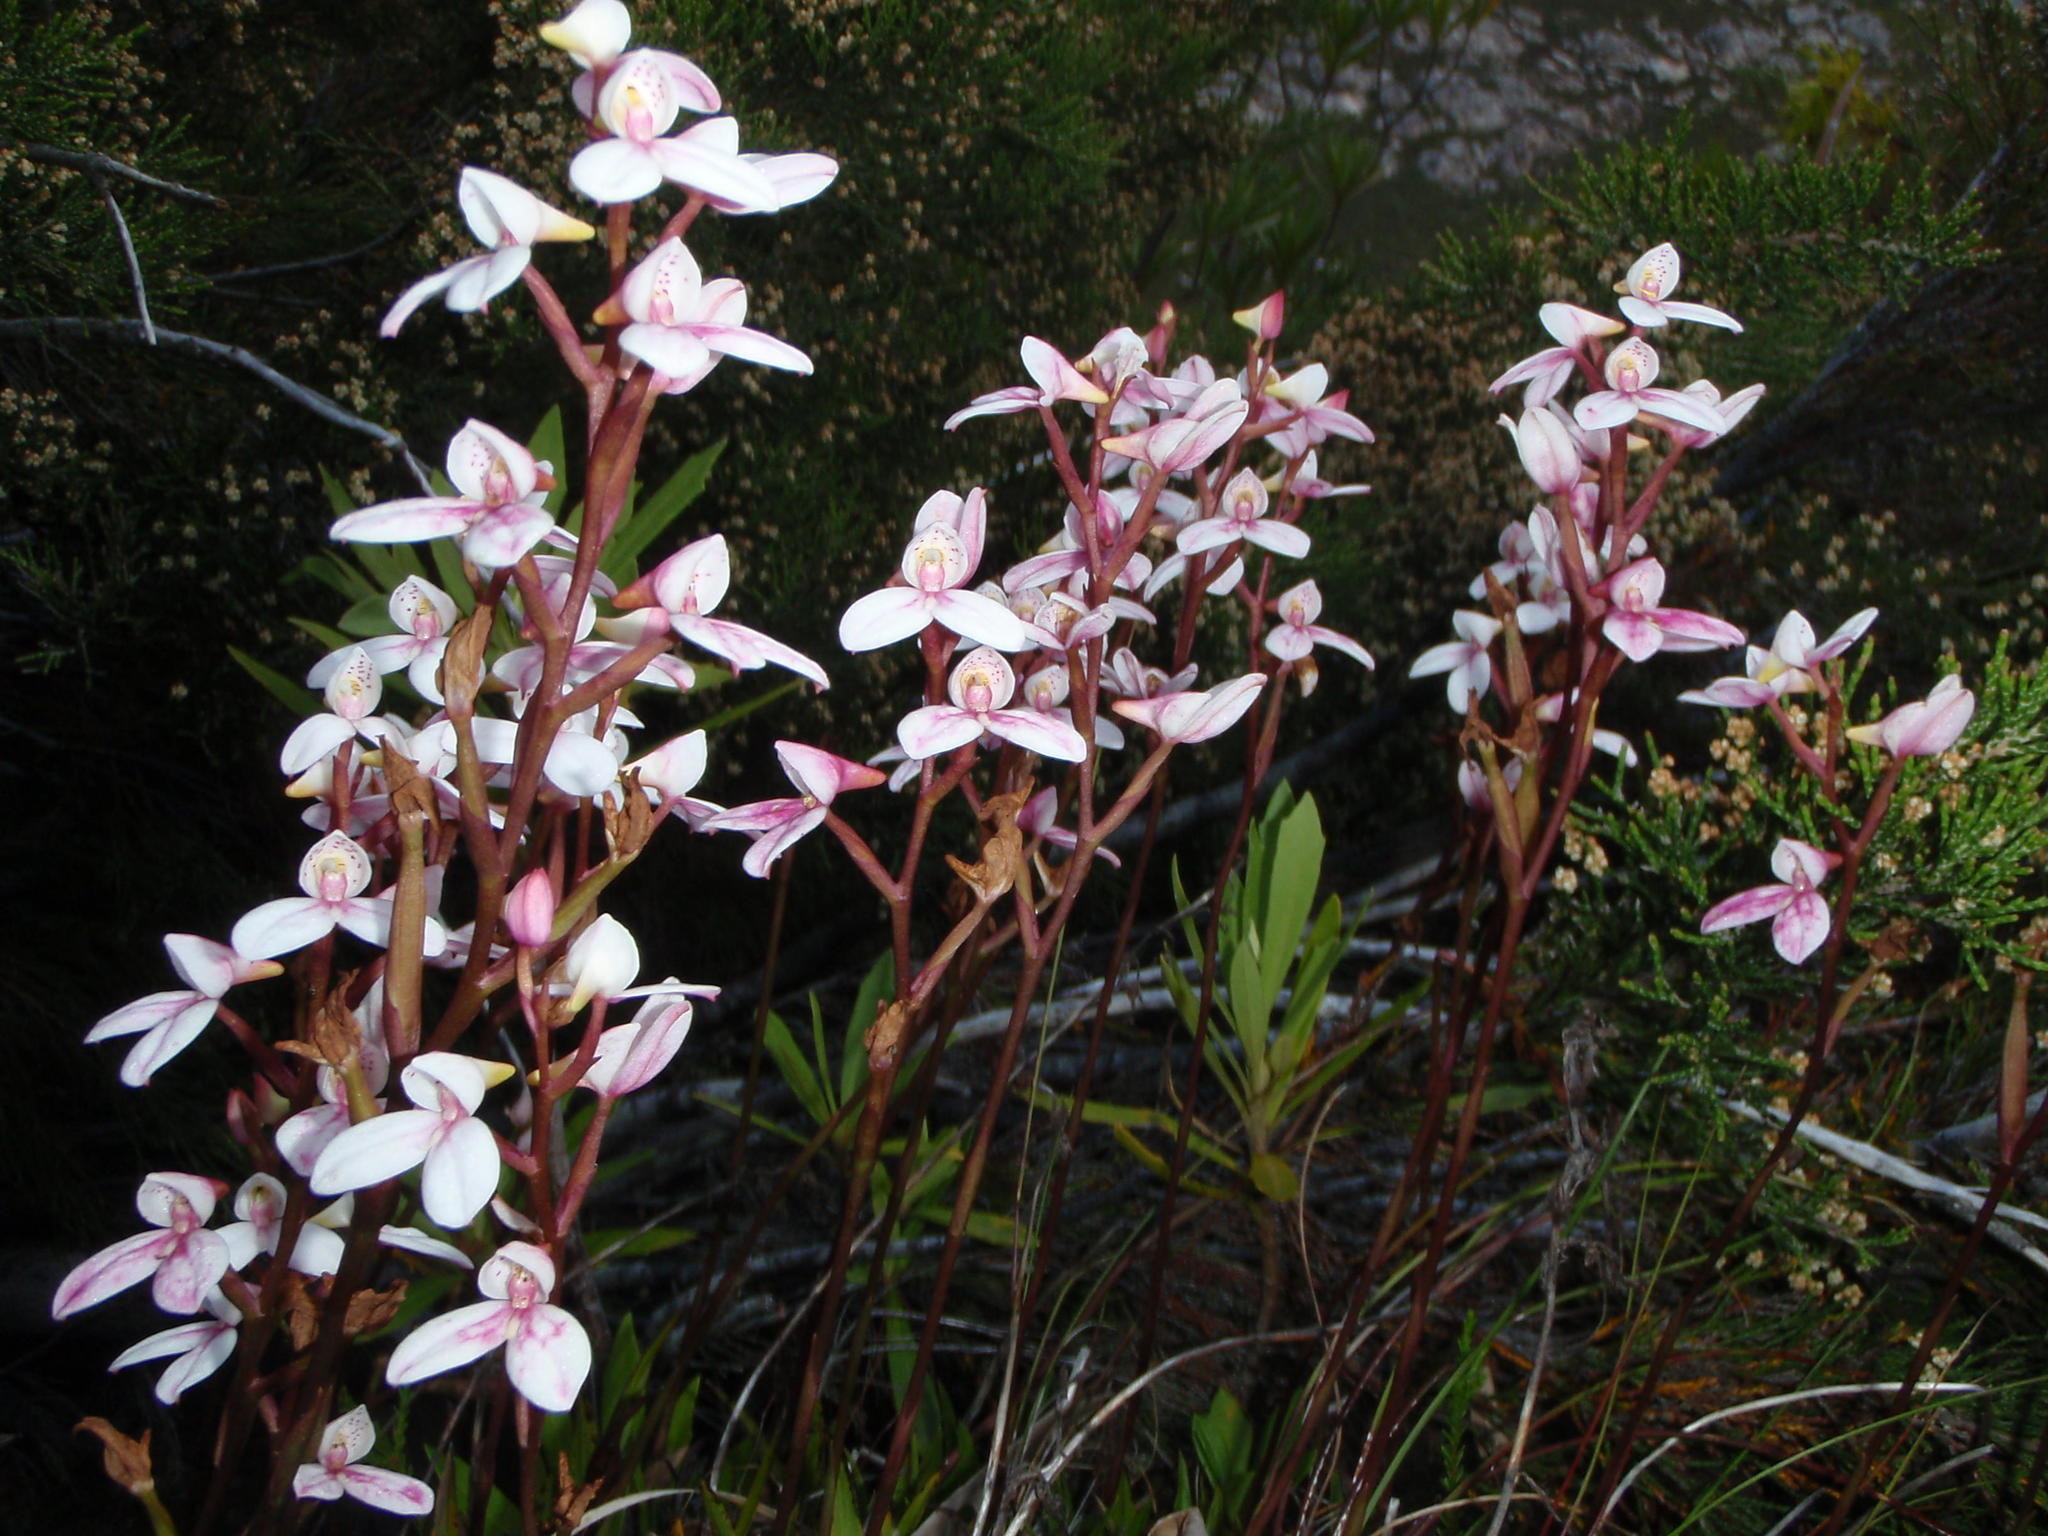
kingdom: Plantae
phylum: Tracheophyta
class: Liliopsida
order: Asparagales
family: Orchidaceae
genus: Disa
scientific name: Disa tripetaloides
